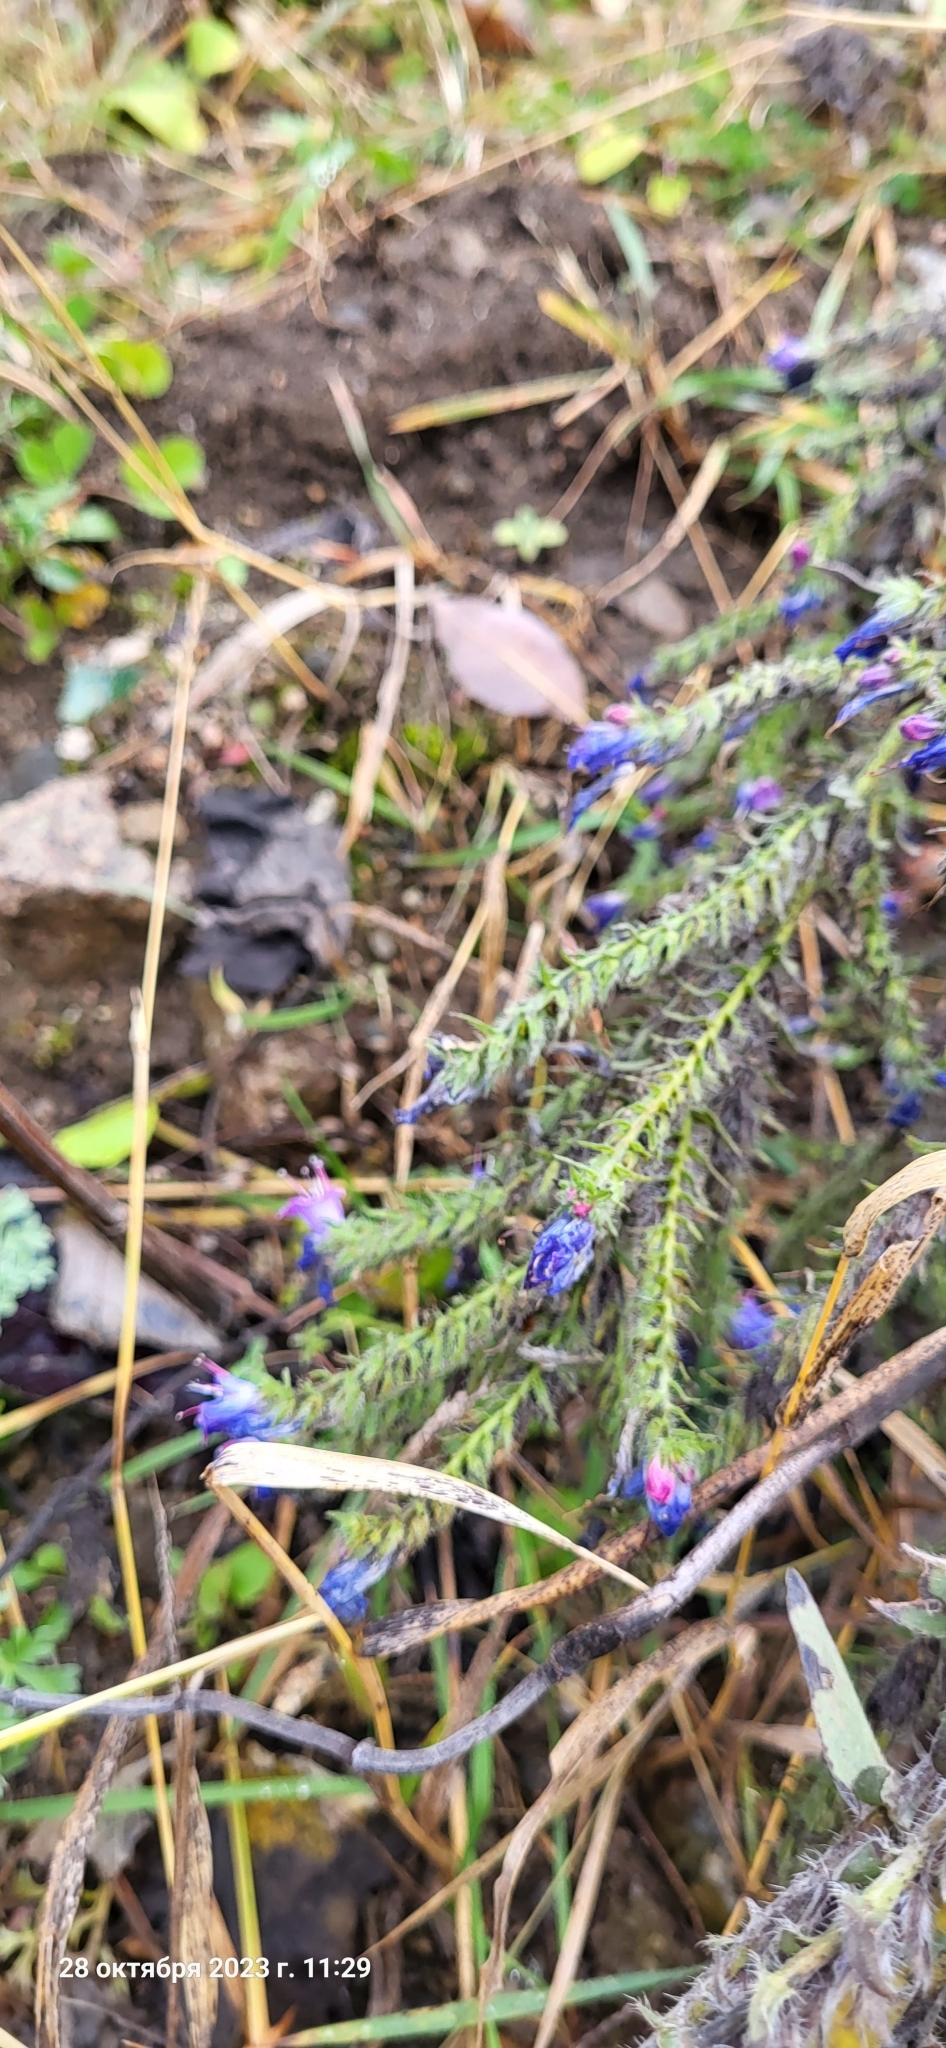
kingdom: Plantae
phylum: Tracheophyta
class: Magnoliopsida
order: Boraginales
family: Boraginaceae
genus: Echium
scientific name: Echium vulgare
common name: Common viper's bugloss
